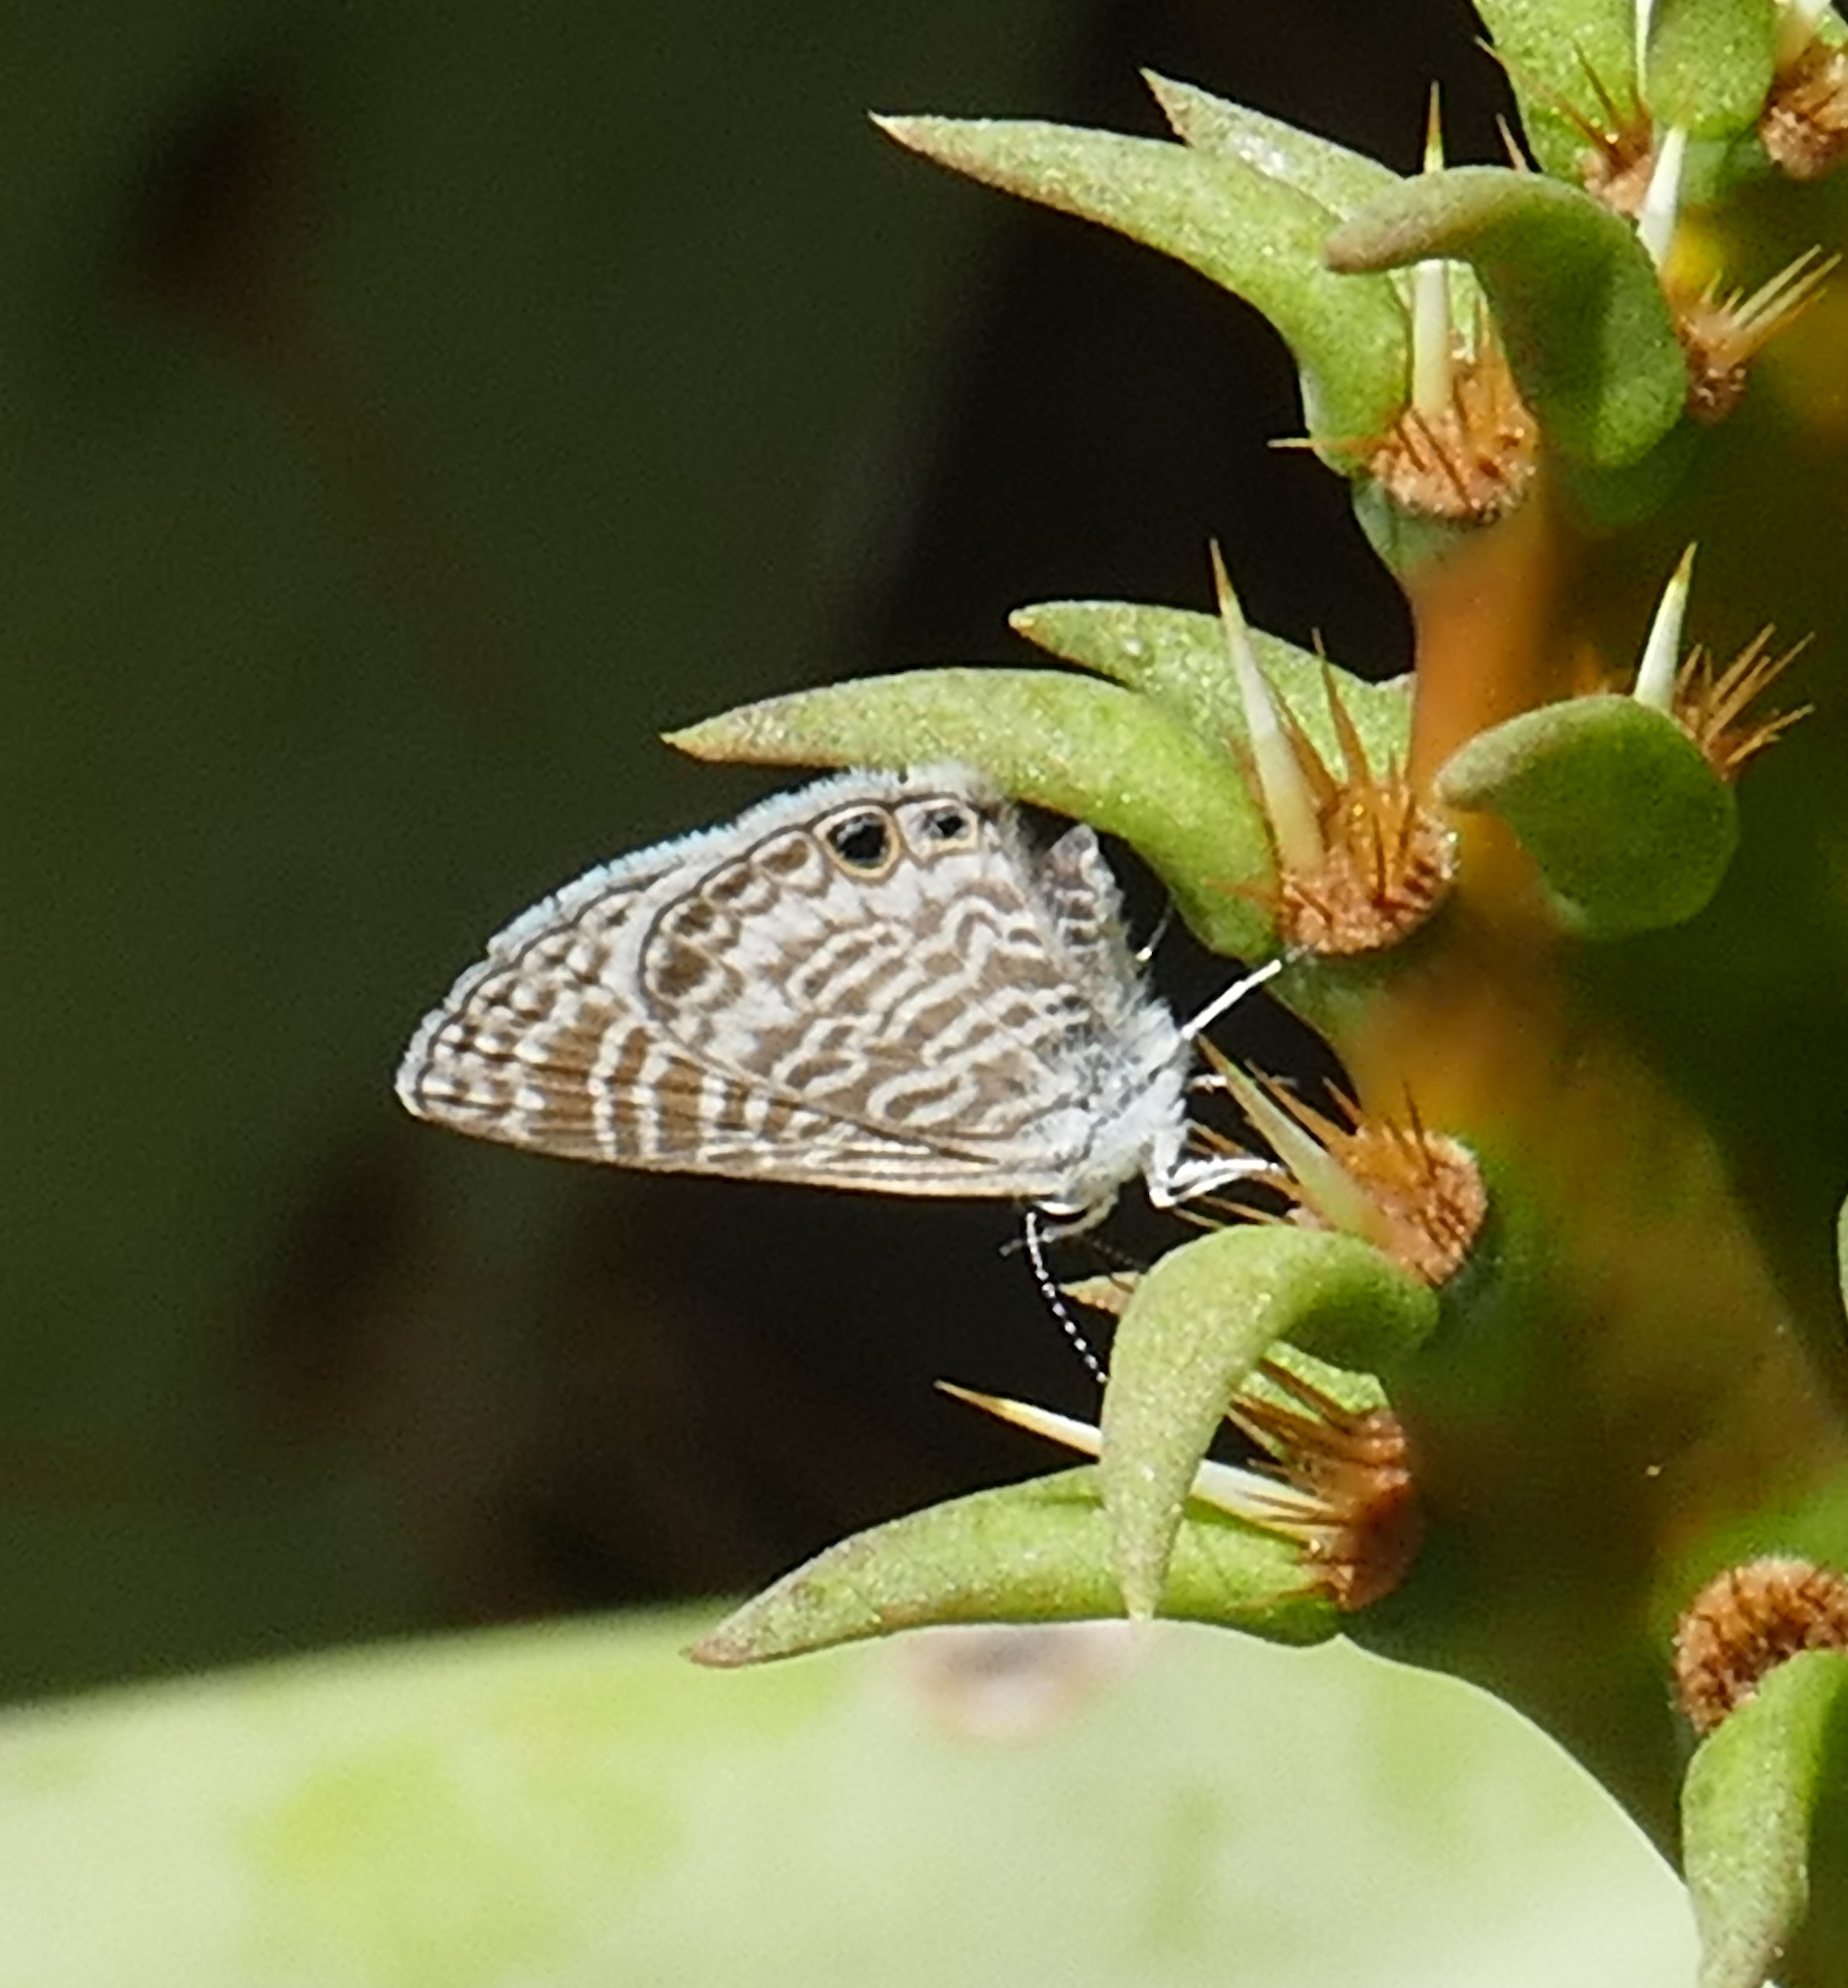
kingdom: Animalia
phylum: Arthropoda
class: Insecta
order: Lepidoptera
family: Lycaenidae
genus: Leptotes
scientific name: Leptotes marina
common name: Marine blue
